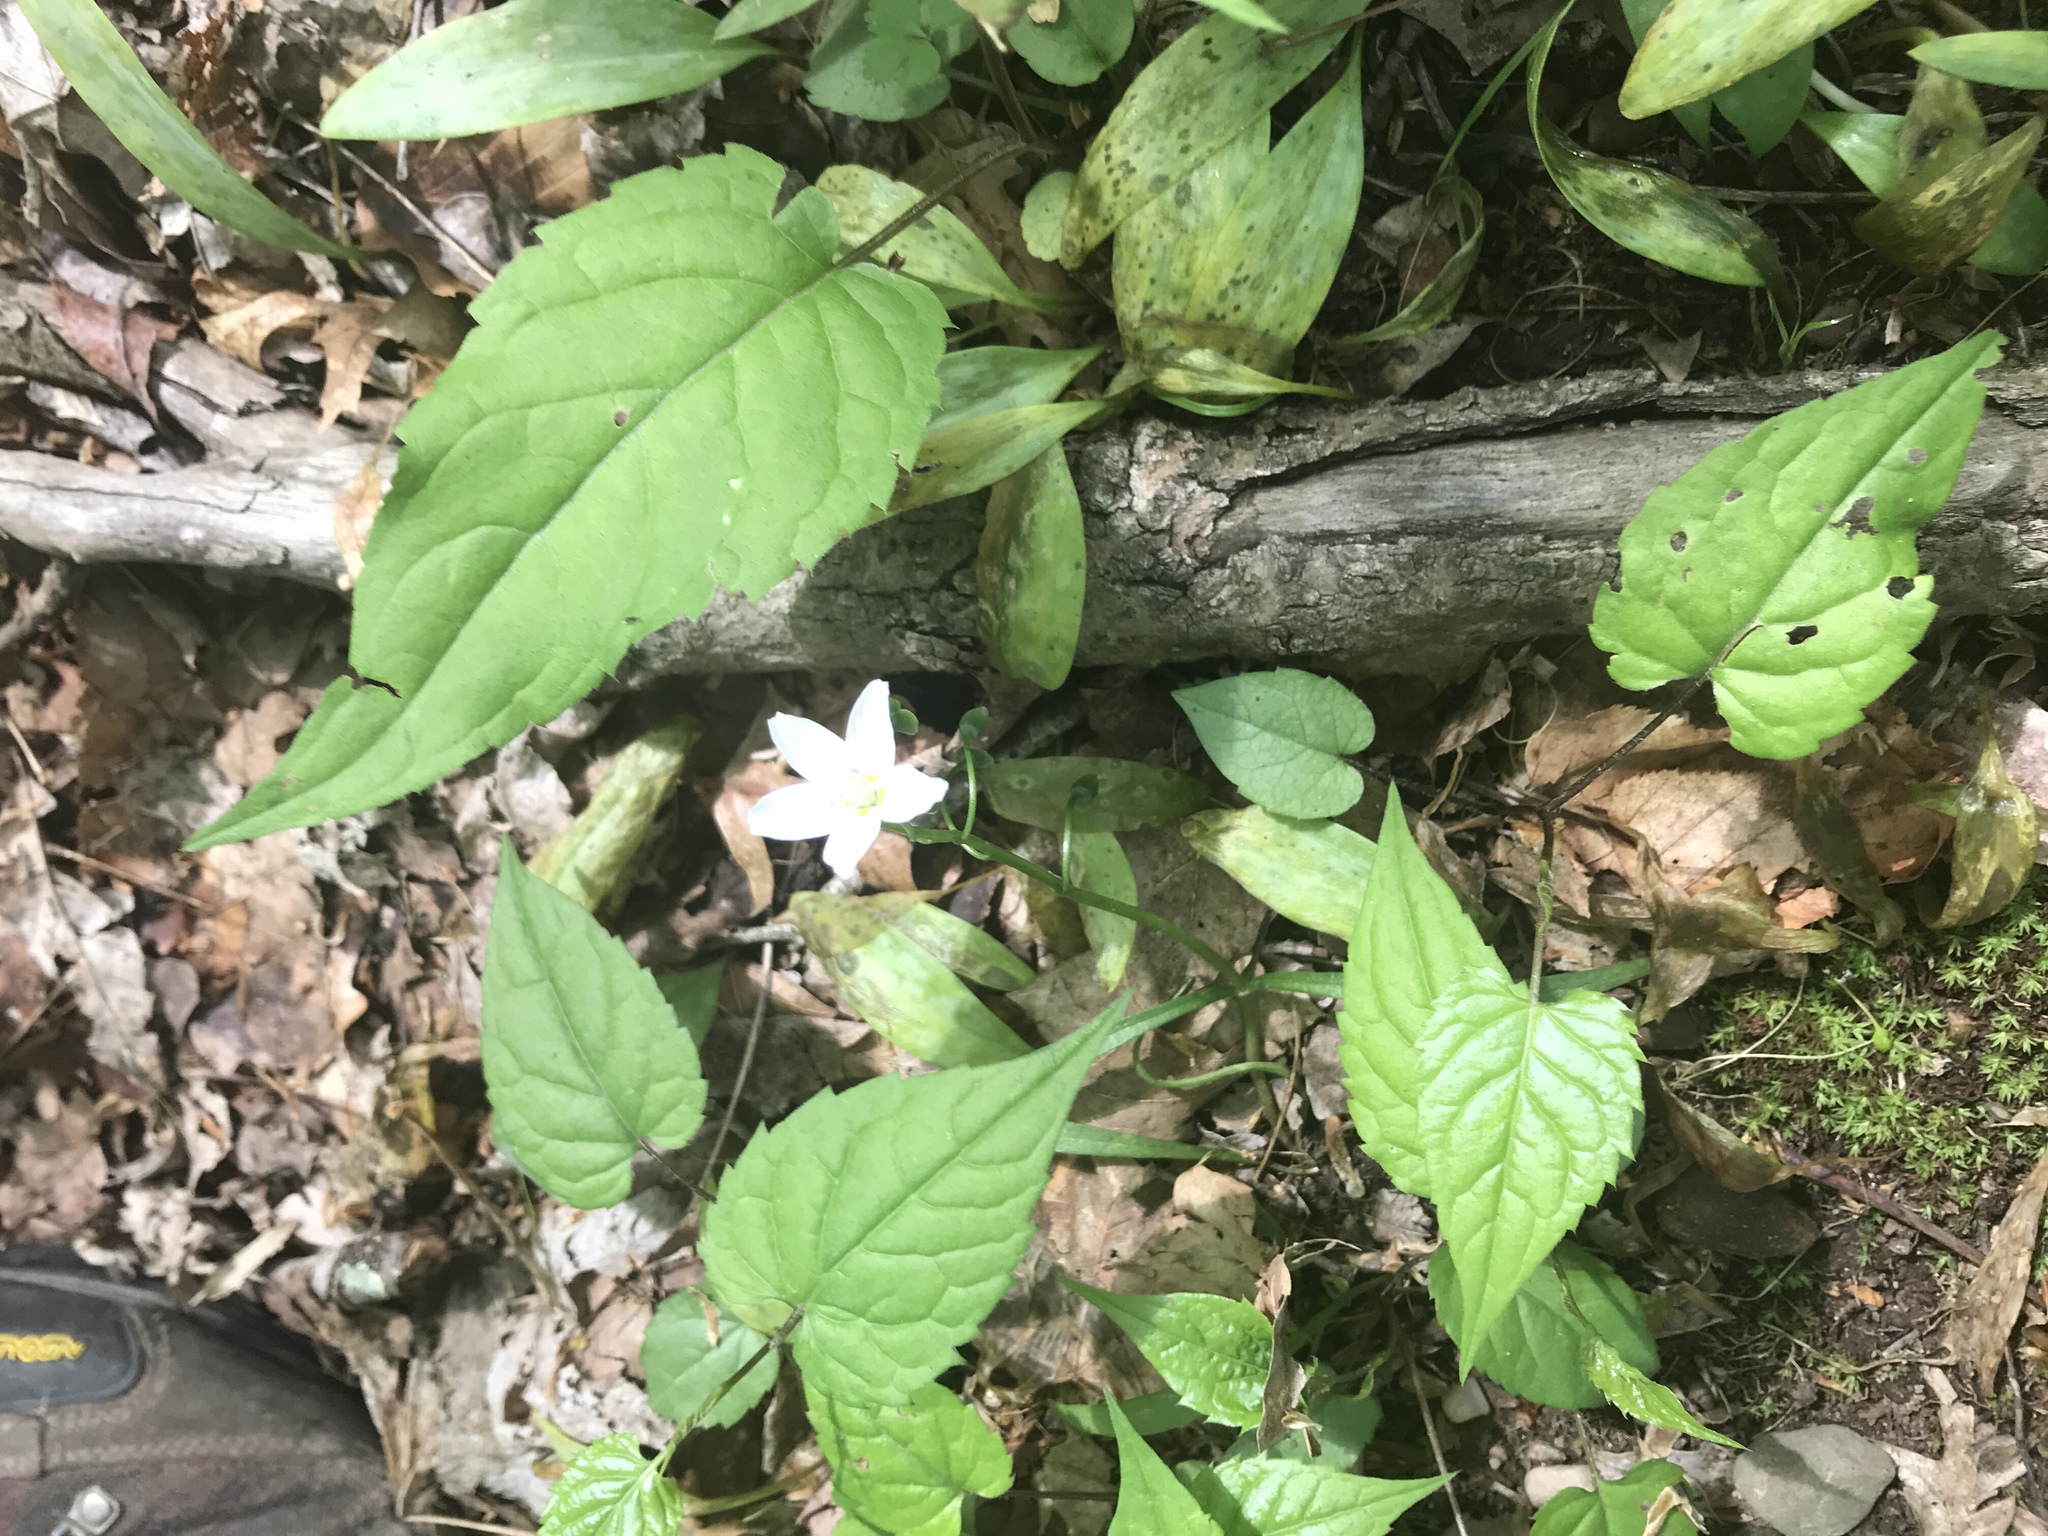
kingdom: Plantae
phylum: Tracheophyta
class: Magnoliopsida
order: Caryophyllales
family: Montiaceae
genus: Claytonia
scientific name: Claytonia virginica
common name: Virginia springbeauty
